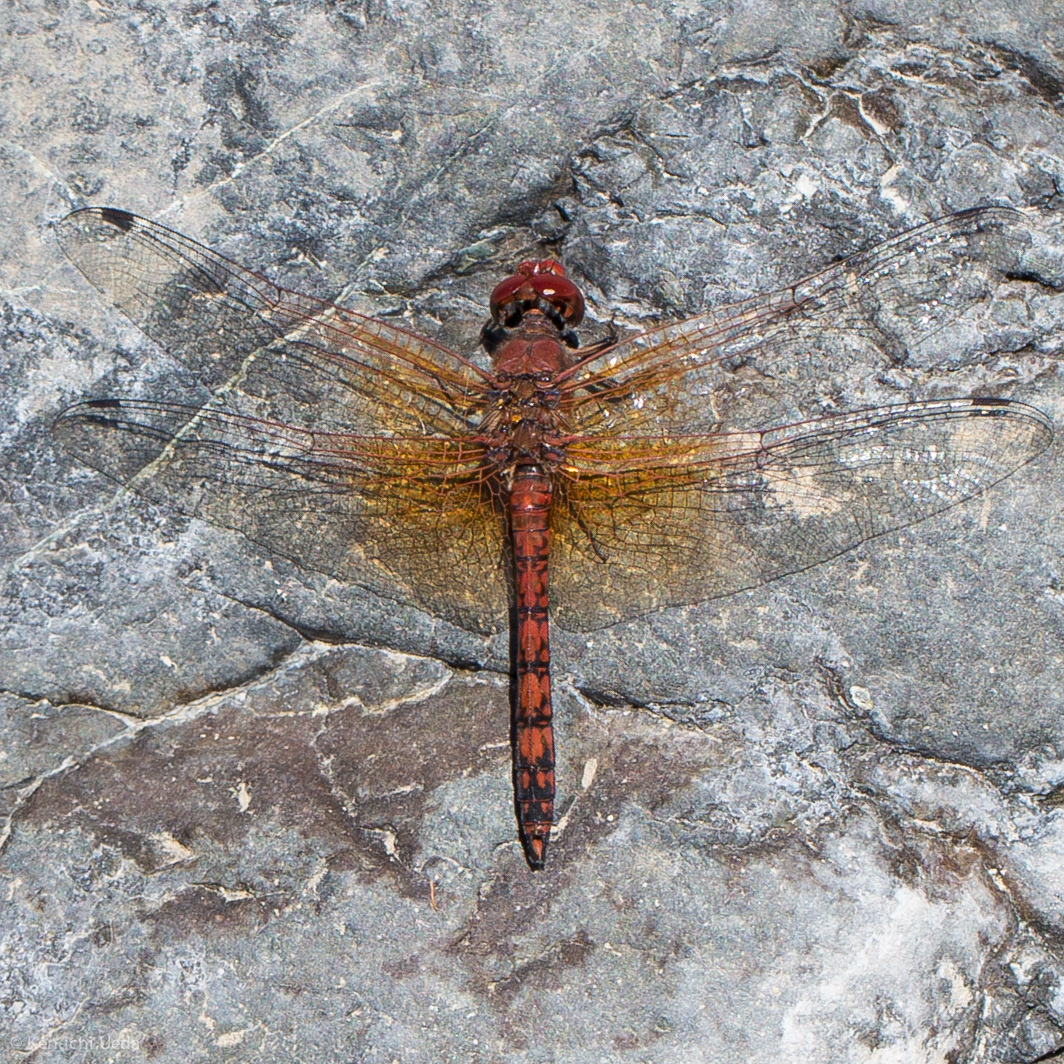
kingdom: Animalia
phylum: Arthropoda
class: Insecta
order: Odonata
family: Libellulidae
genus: Paltothemis
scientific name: Paltothemis lineatipes
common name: Red rock skimmer
